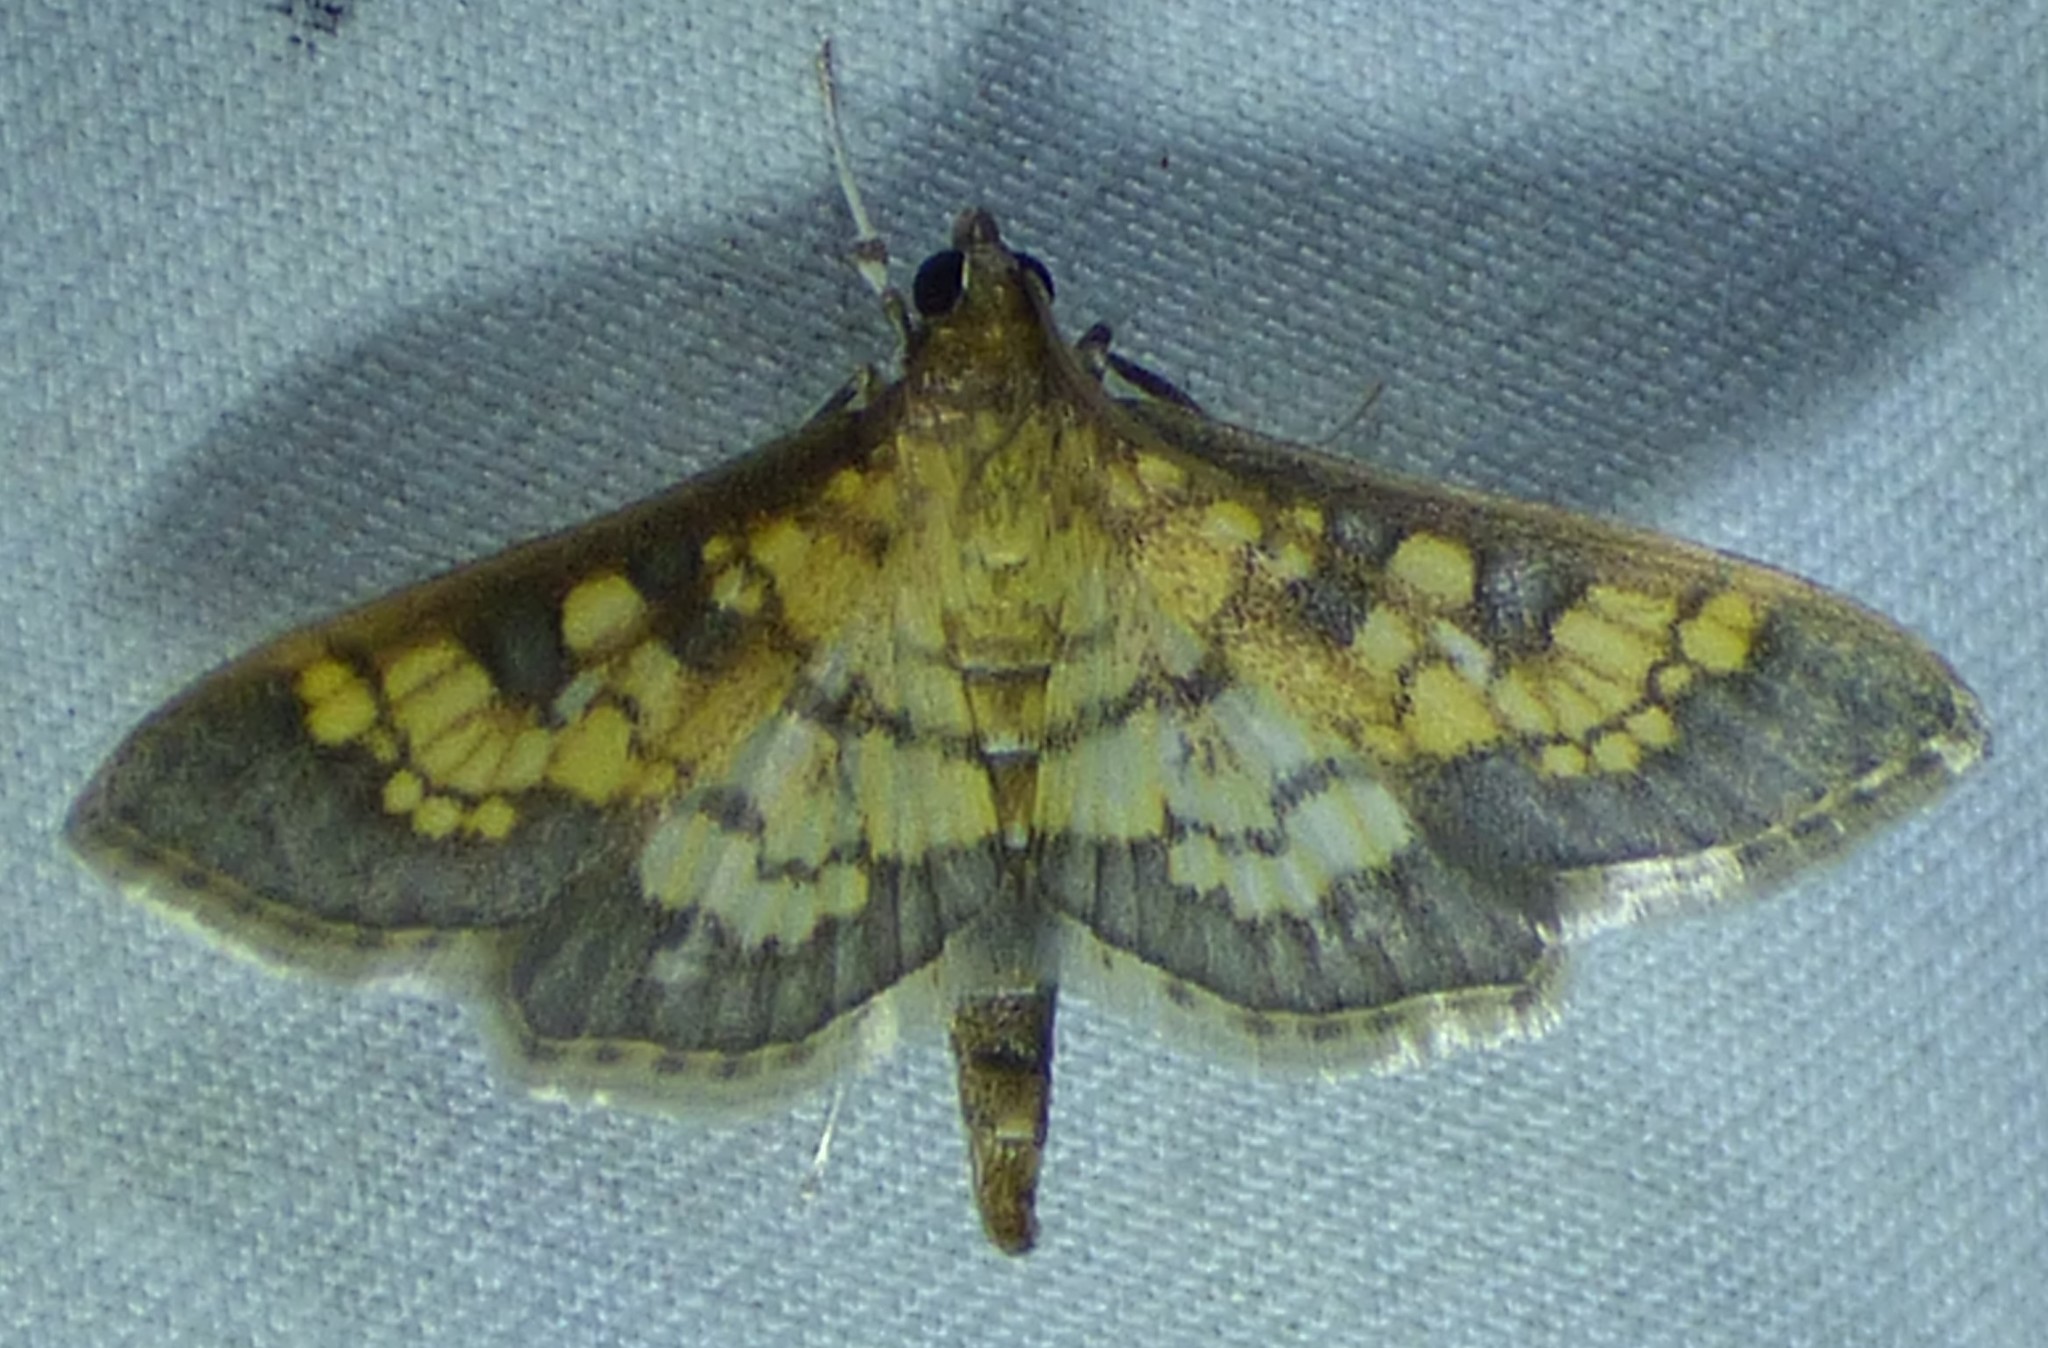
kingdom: Animalia
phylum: Arthropoda
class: Insecta
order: Lepidoptera
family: Crambidae
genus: Epipagis
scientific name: Epipagis adipaloides
